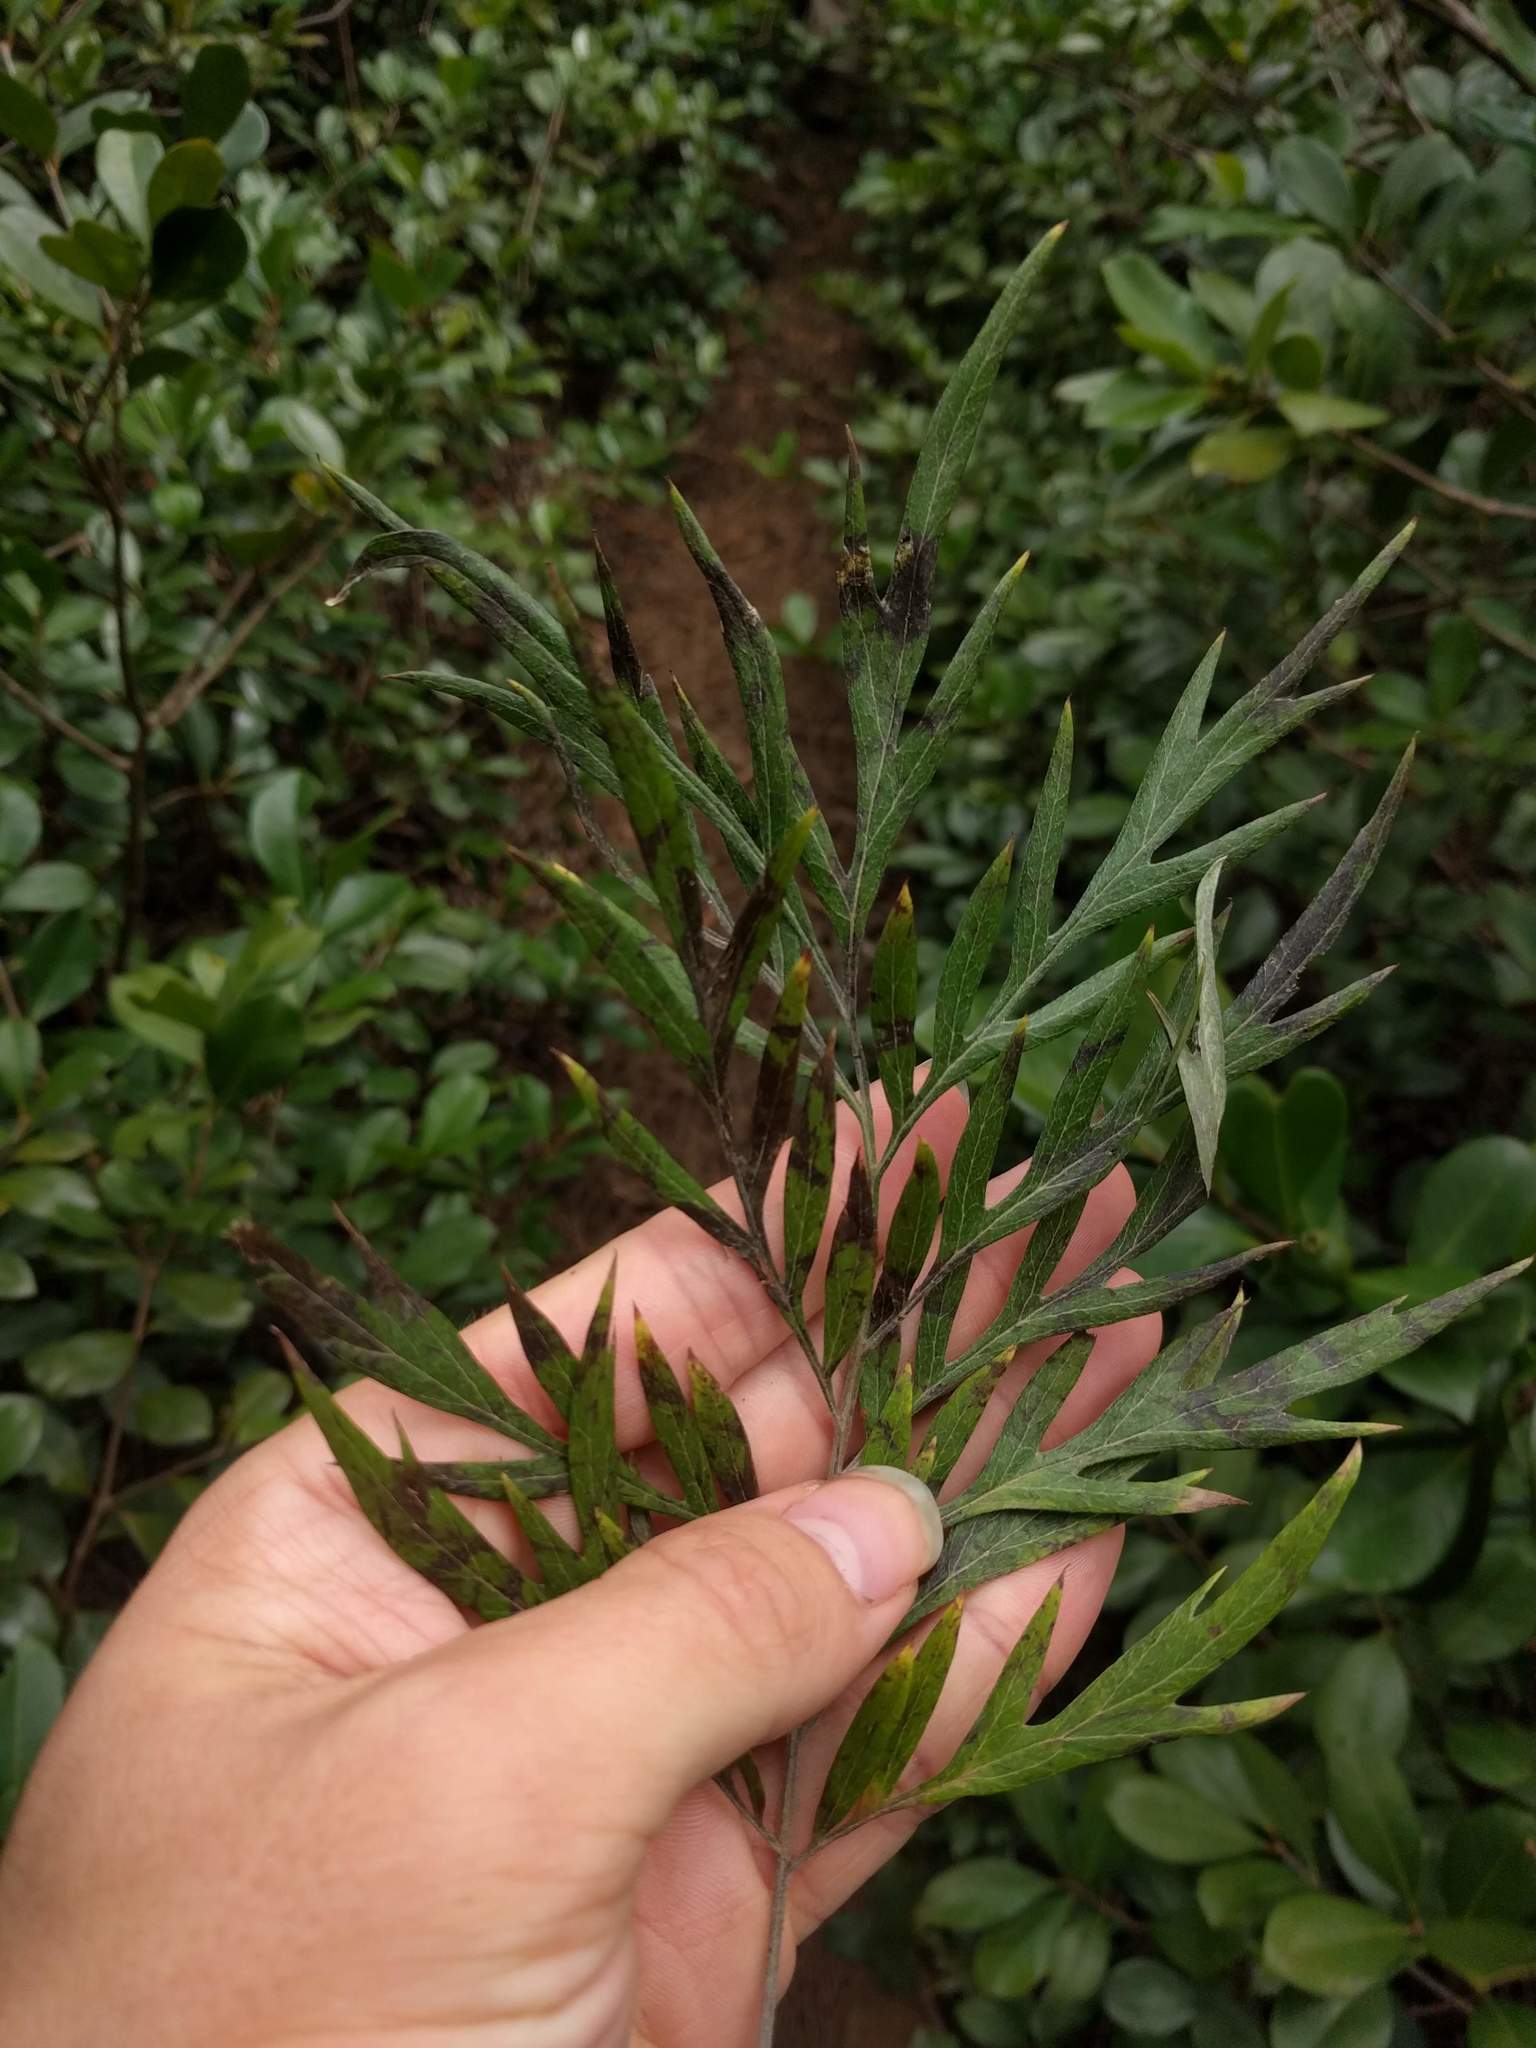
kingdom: Plantae
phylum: Tracheophyta
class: Magnoliopsida
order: Proteales
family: Proteaceae
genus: Grevillea
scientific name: Grevillea robusta
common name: Silkoak
